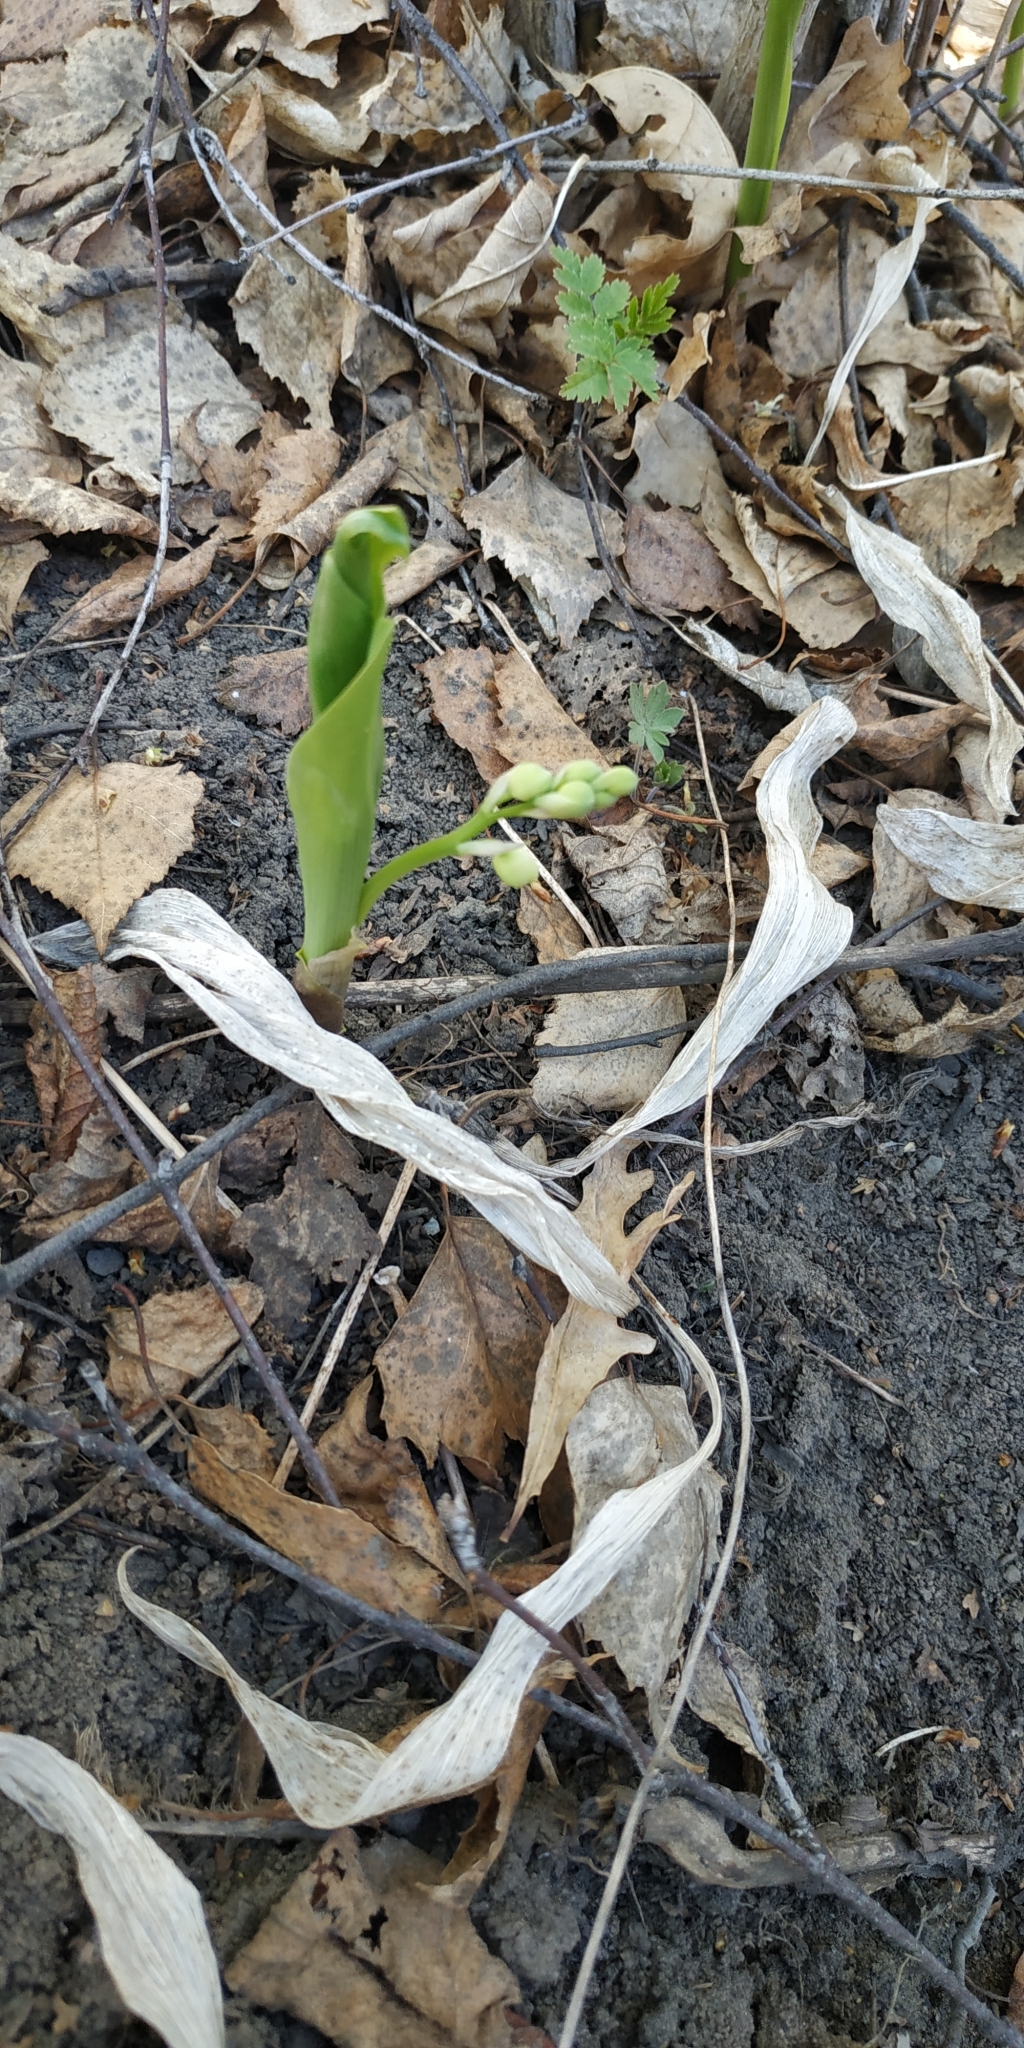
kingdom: Plantae
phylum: Tracheophyta
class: Liliopsida
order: Asparagales
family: Asparagaceae
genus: Convallaria
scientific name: Convallaria majalis
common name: Lily-of-the-valley
